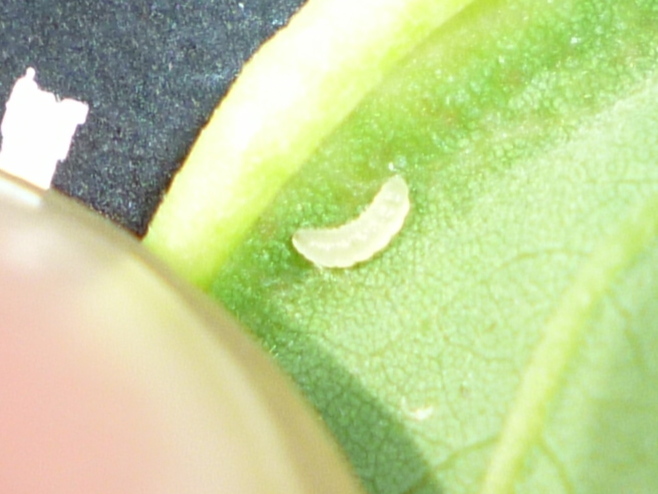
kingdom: Animalia
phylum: Arthropoda
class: Insecta
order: Diptera
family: Cecidomyiidae
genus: Obolodiplosis
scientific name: Obolodiplosis robiniae
